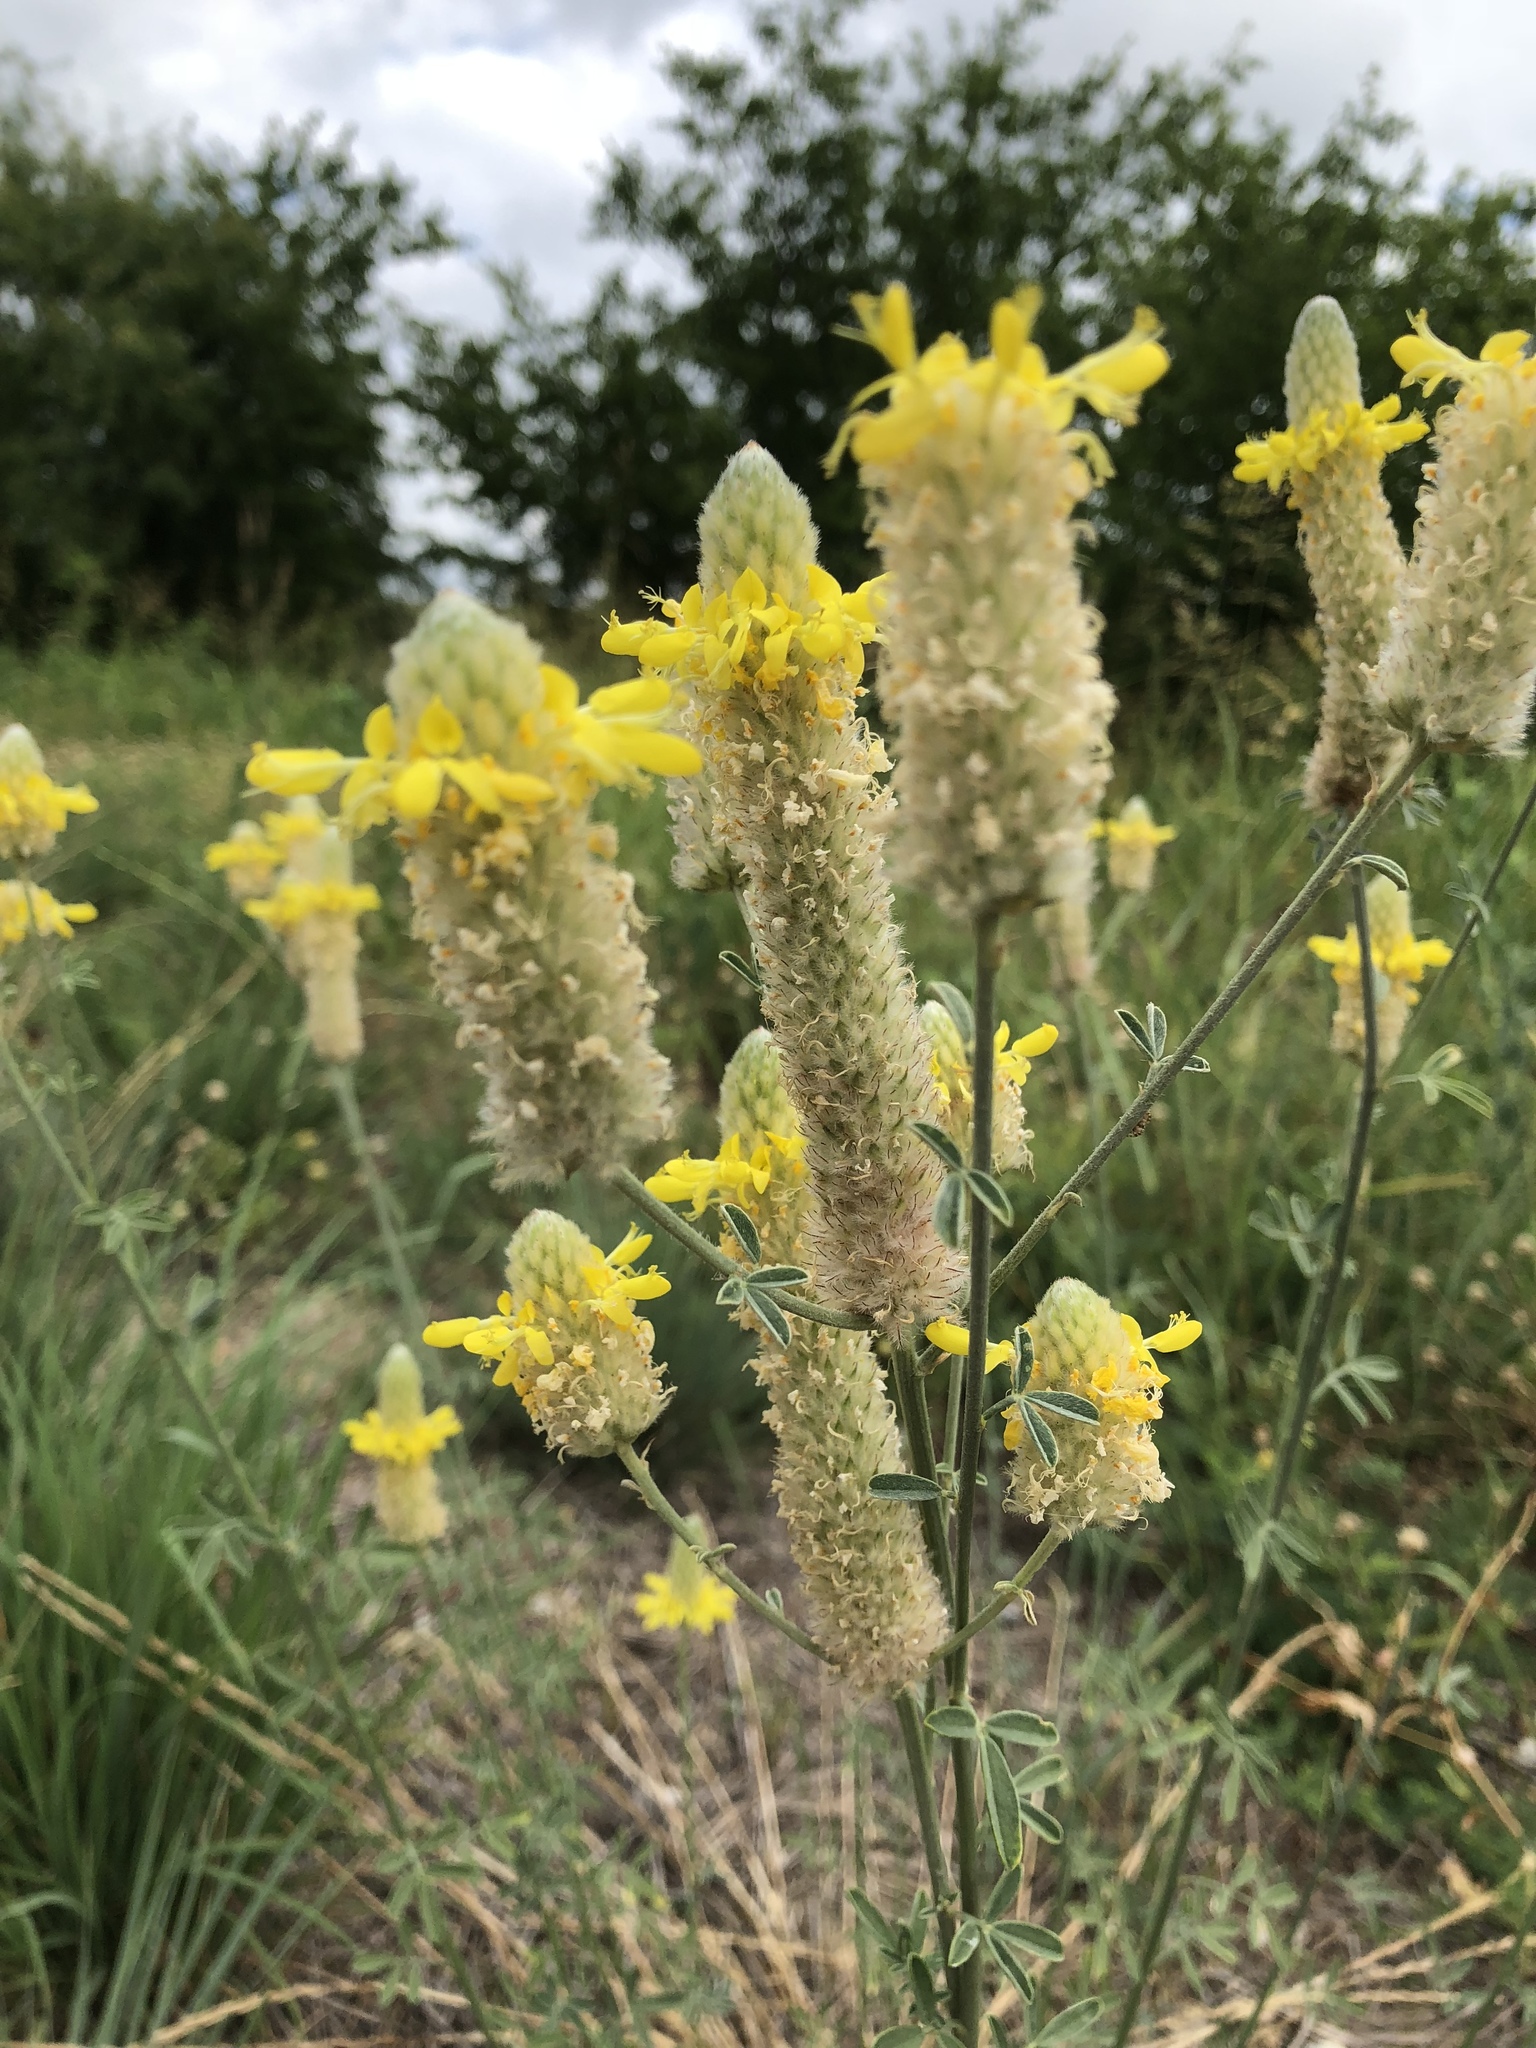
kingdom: Plantae
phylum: Tracheophyta
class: Magnoliopsida
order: Fabales
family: Fabaceae
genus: Dalea
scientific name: Dalea aurea
